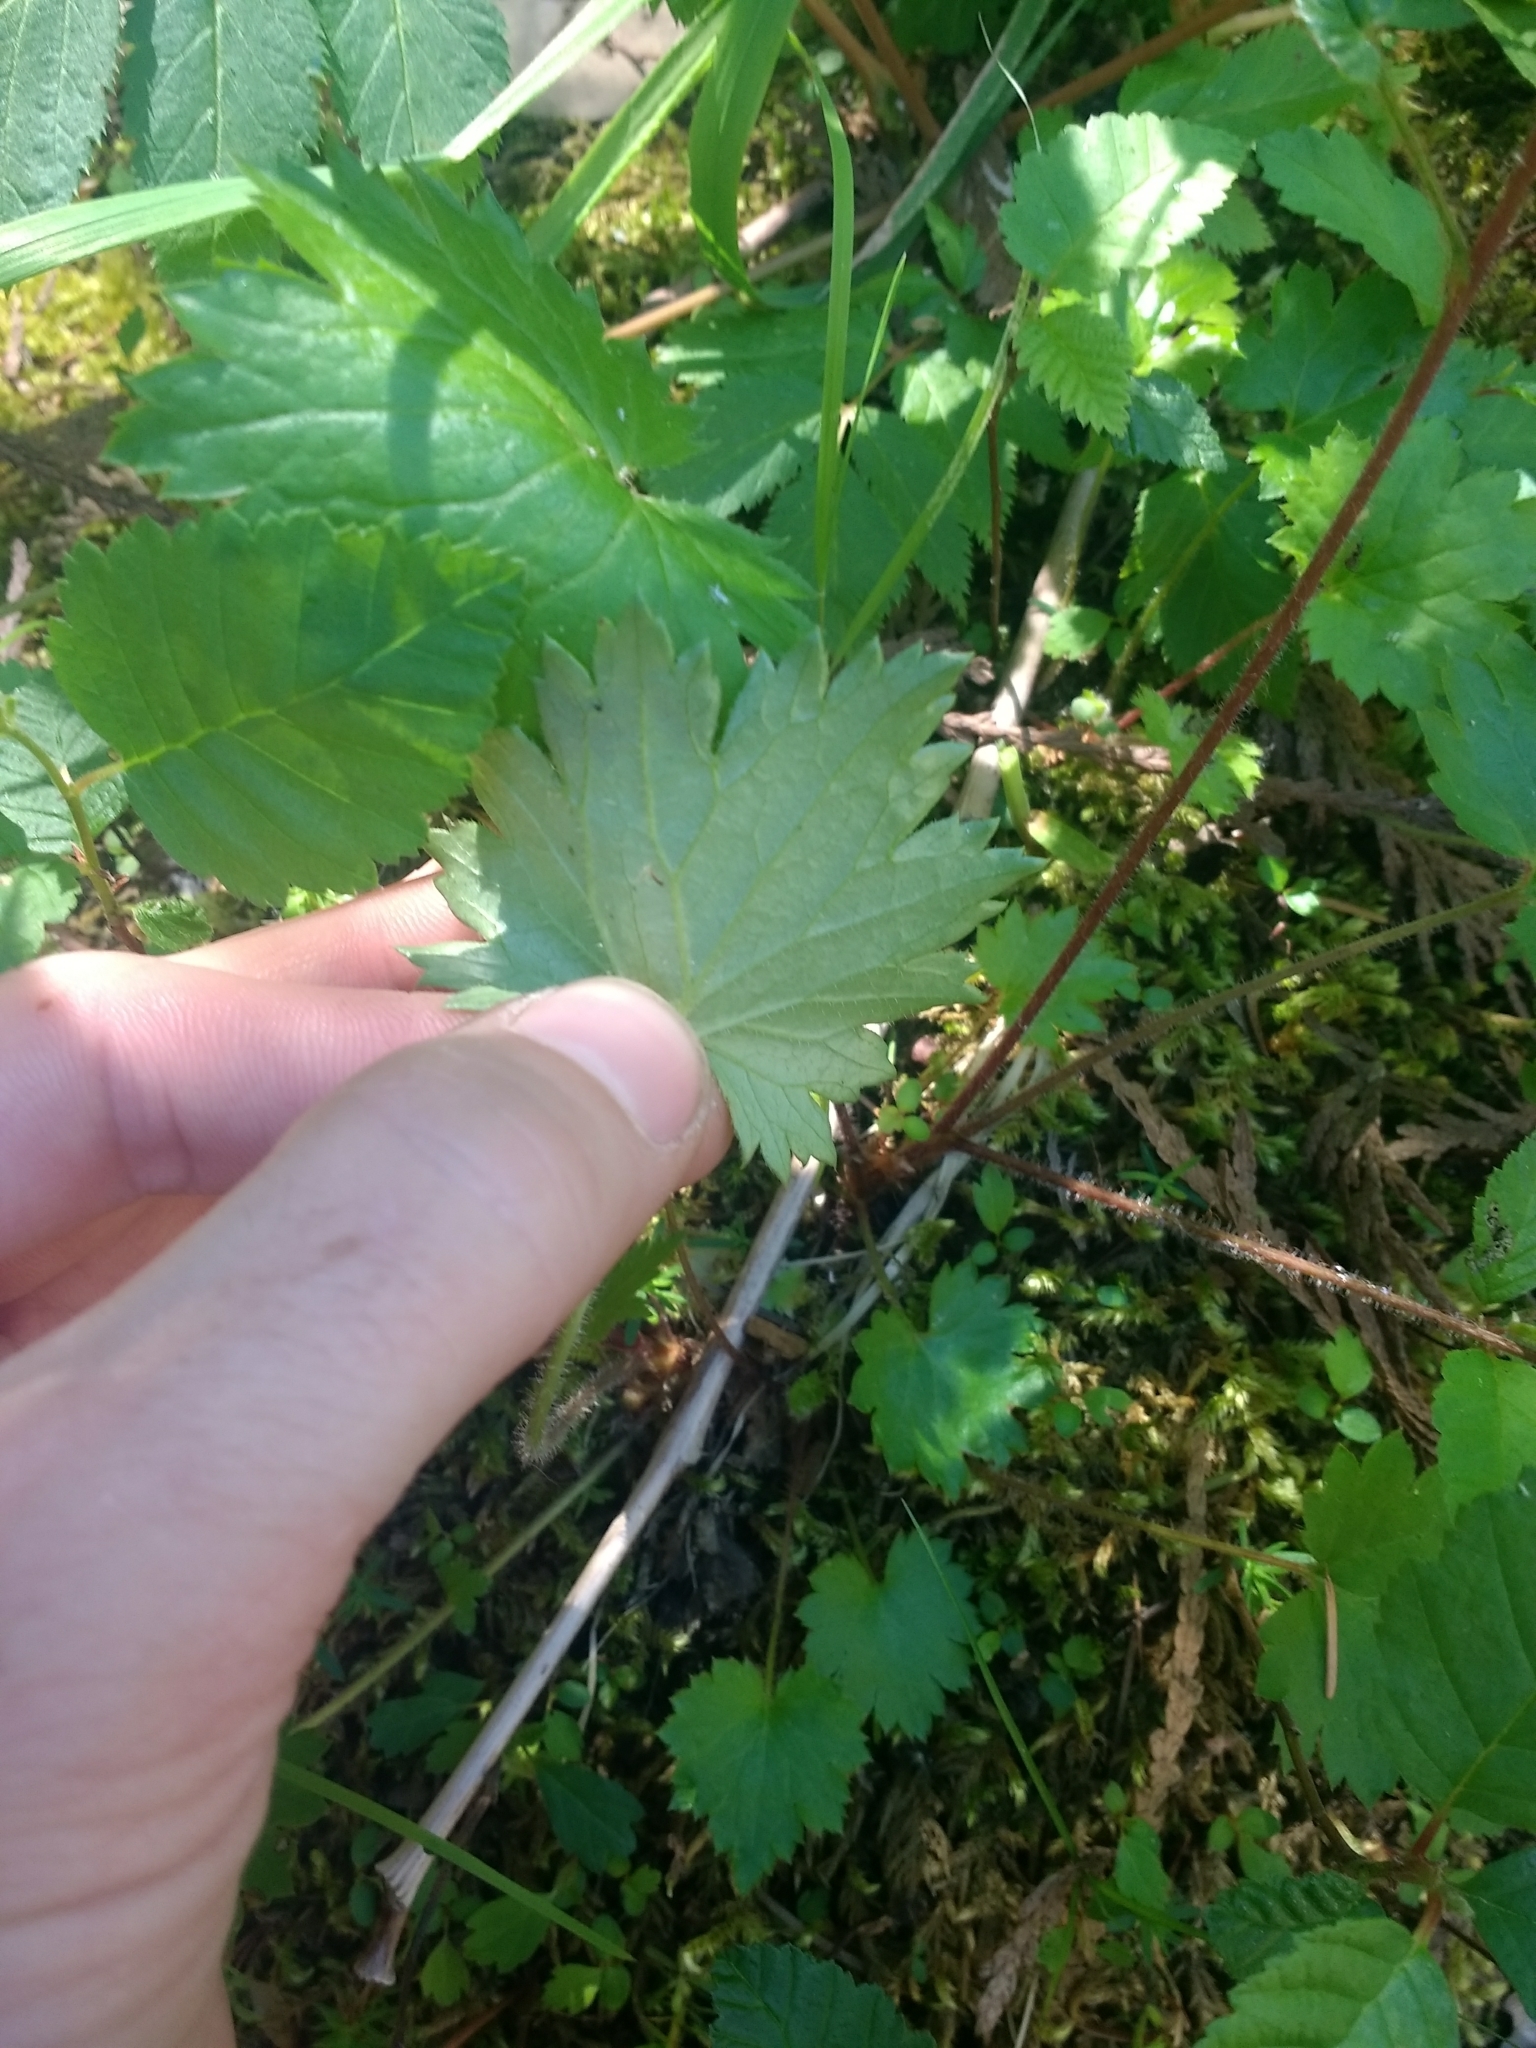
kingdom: Plantae
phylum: Tracheophyta
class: Magnoliopsida
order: Saxifragales
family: Saxifragaceae
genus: Boykinia
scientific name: Boykinia occidentalis
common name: Coast boykinia
